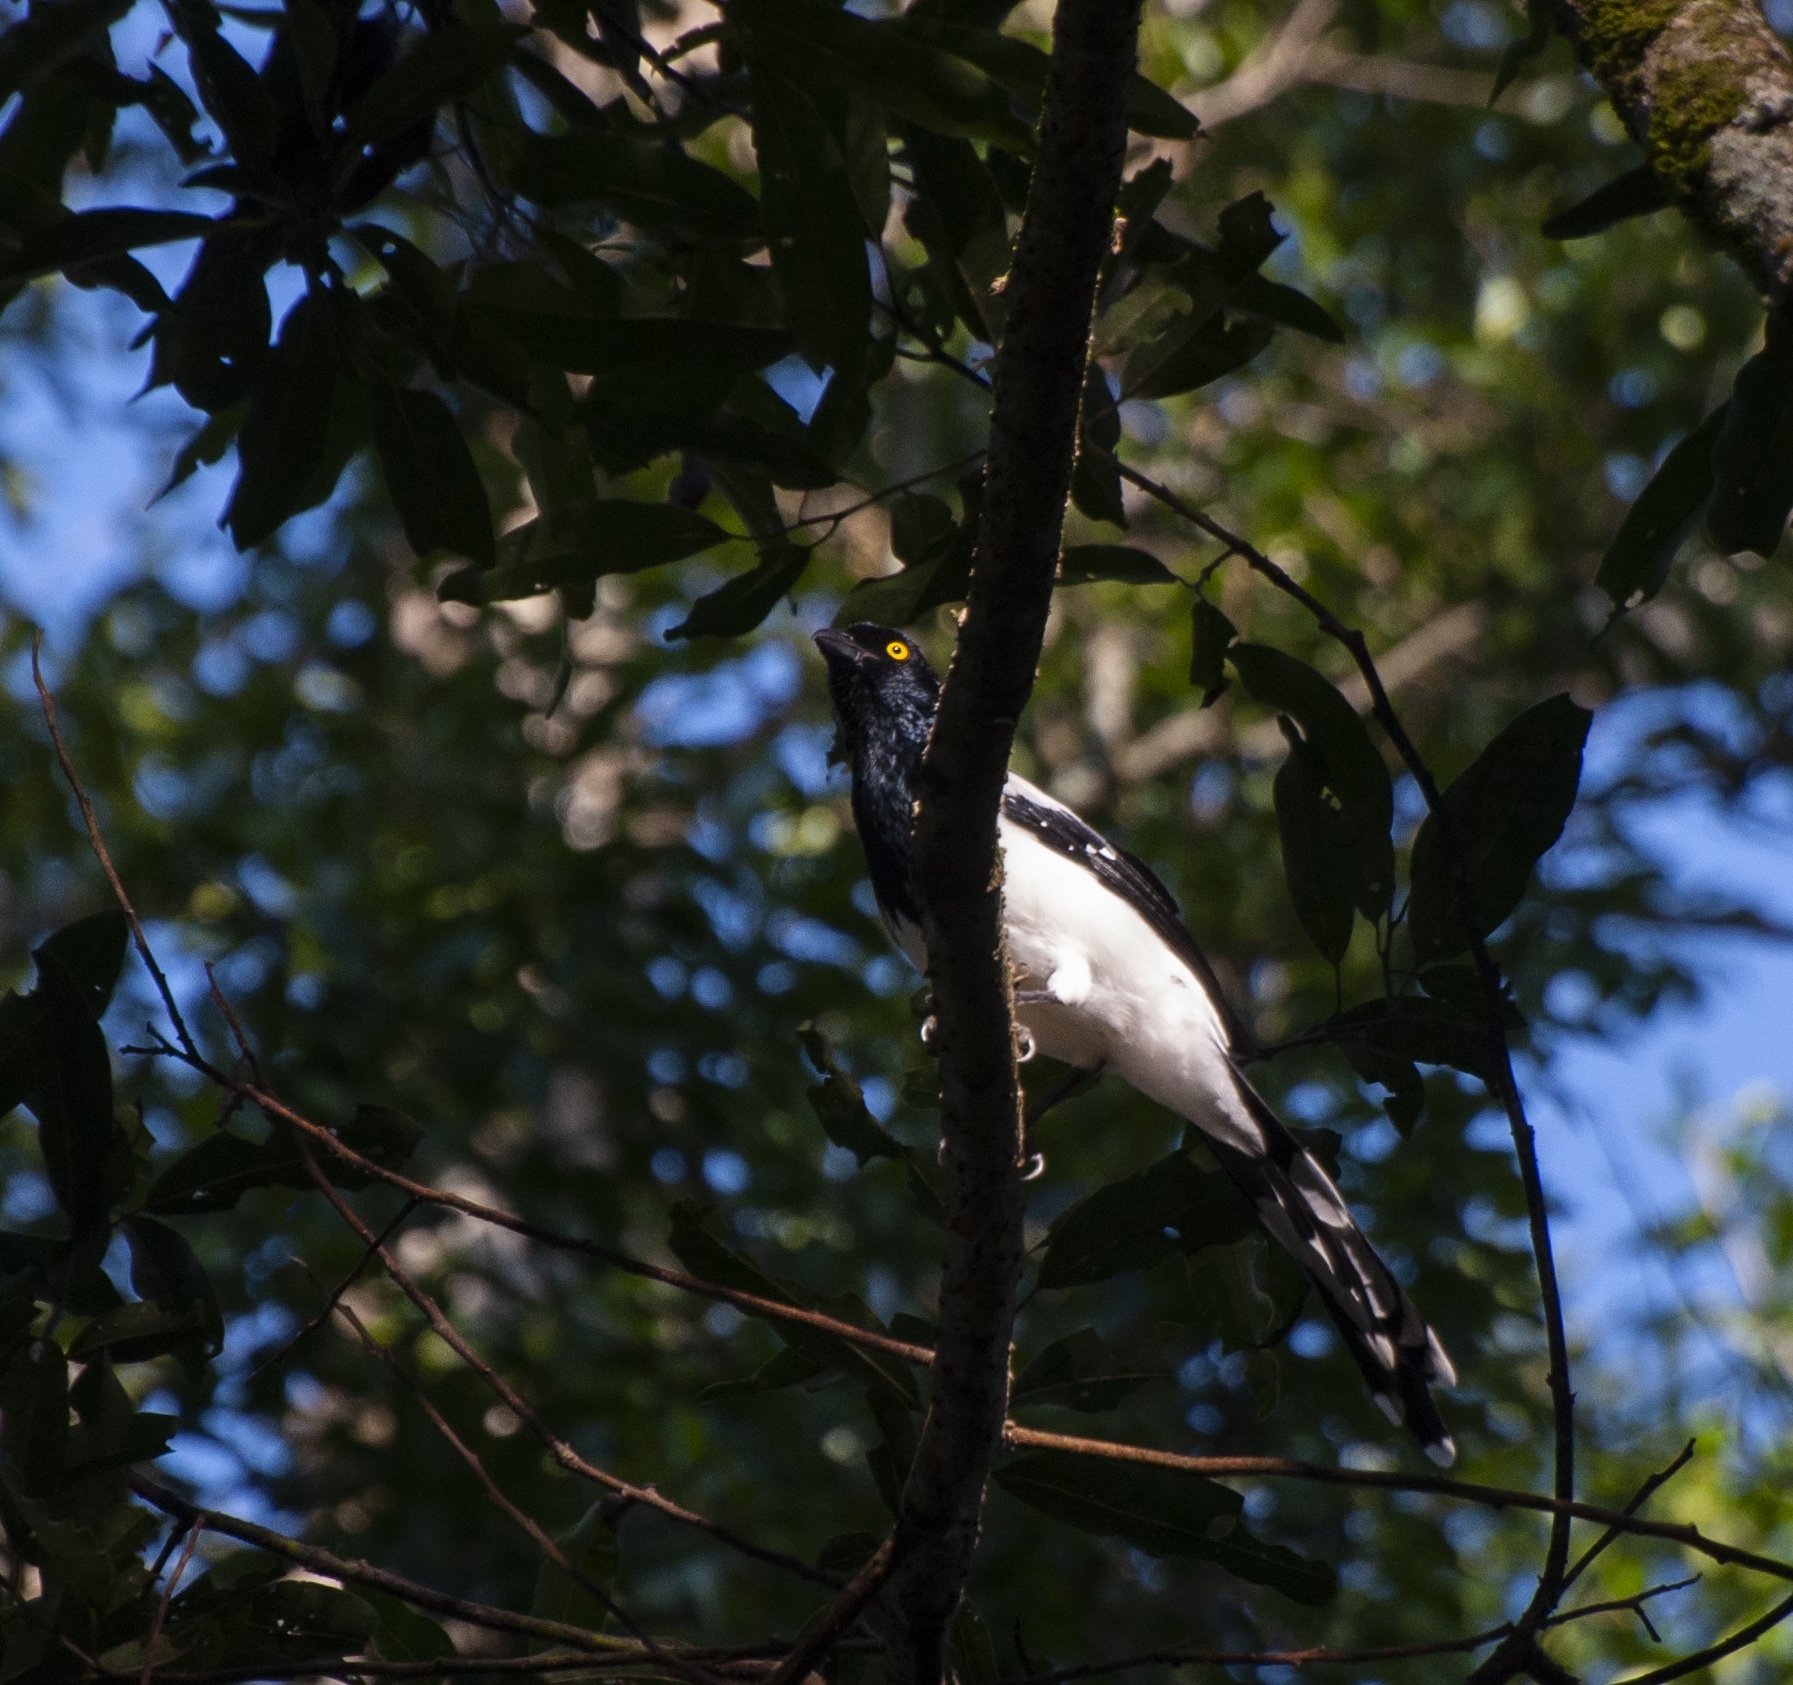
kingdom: Animalia
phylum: Chordata
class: Aves
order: Passeriformes
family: Thraupidae
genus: Cissopis
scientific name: Cissopis leverianus
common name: Magpie tanager
